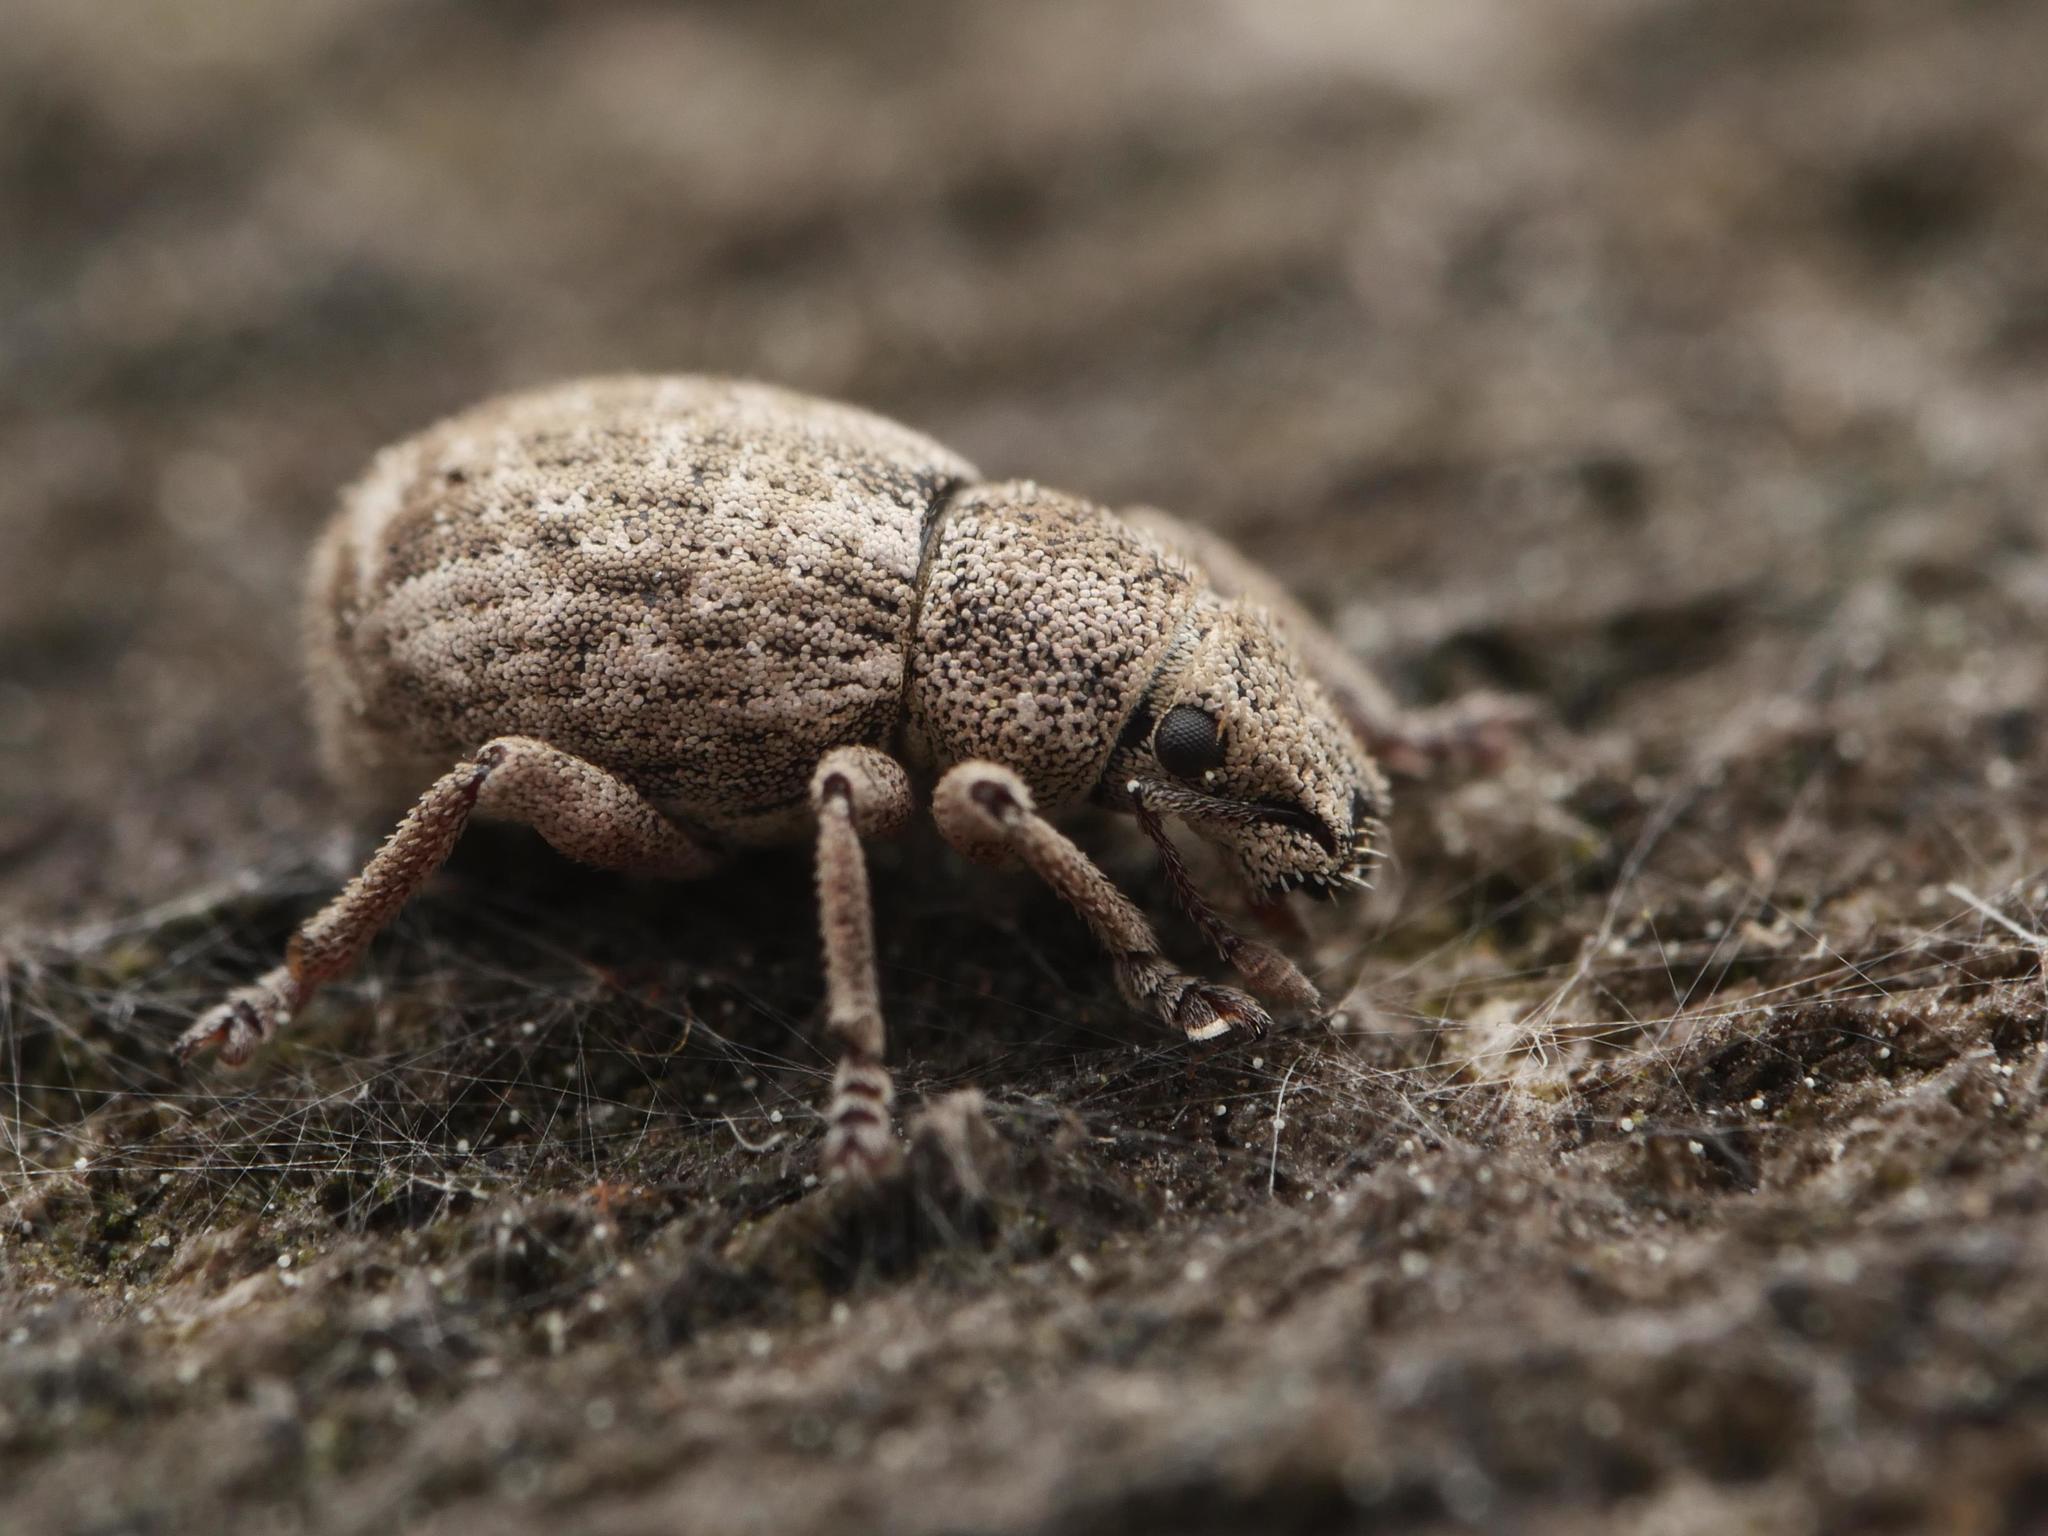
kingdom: Animalia
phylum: Arthropoda
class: Insecta
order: Coleoptera
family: Curculionidae
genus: Strophosoma
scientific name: Strophosoma capitatum
